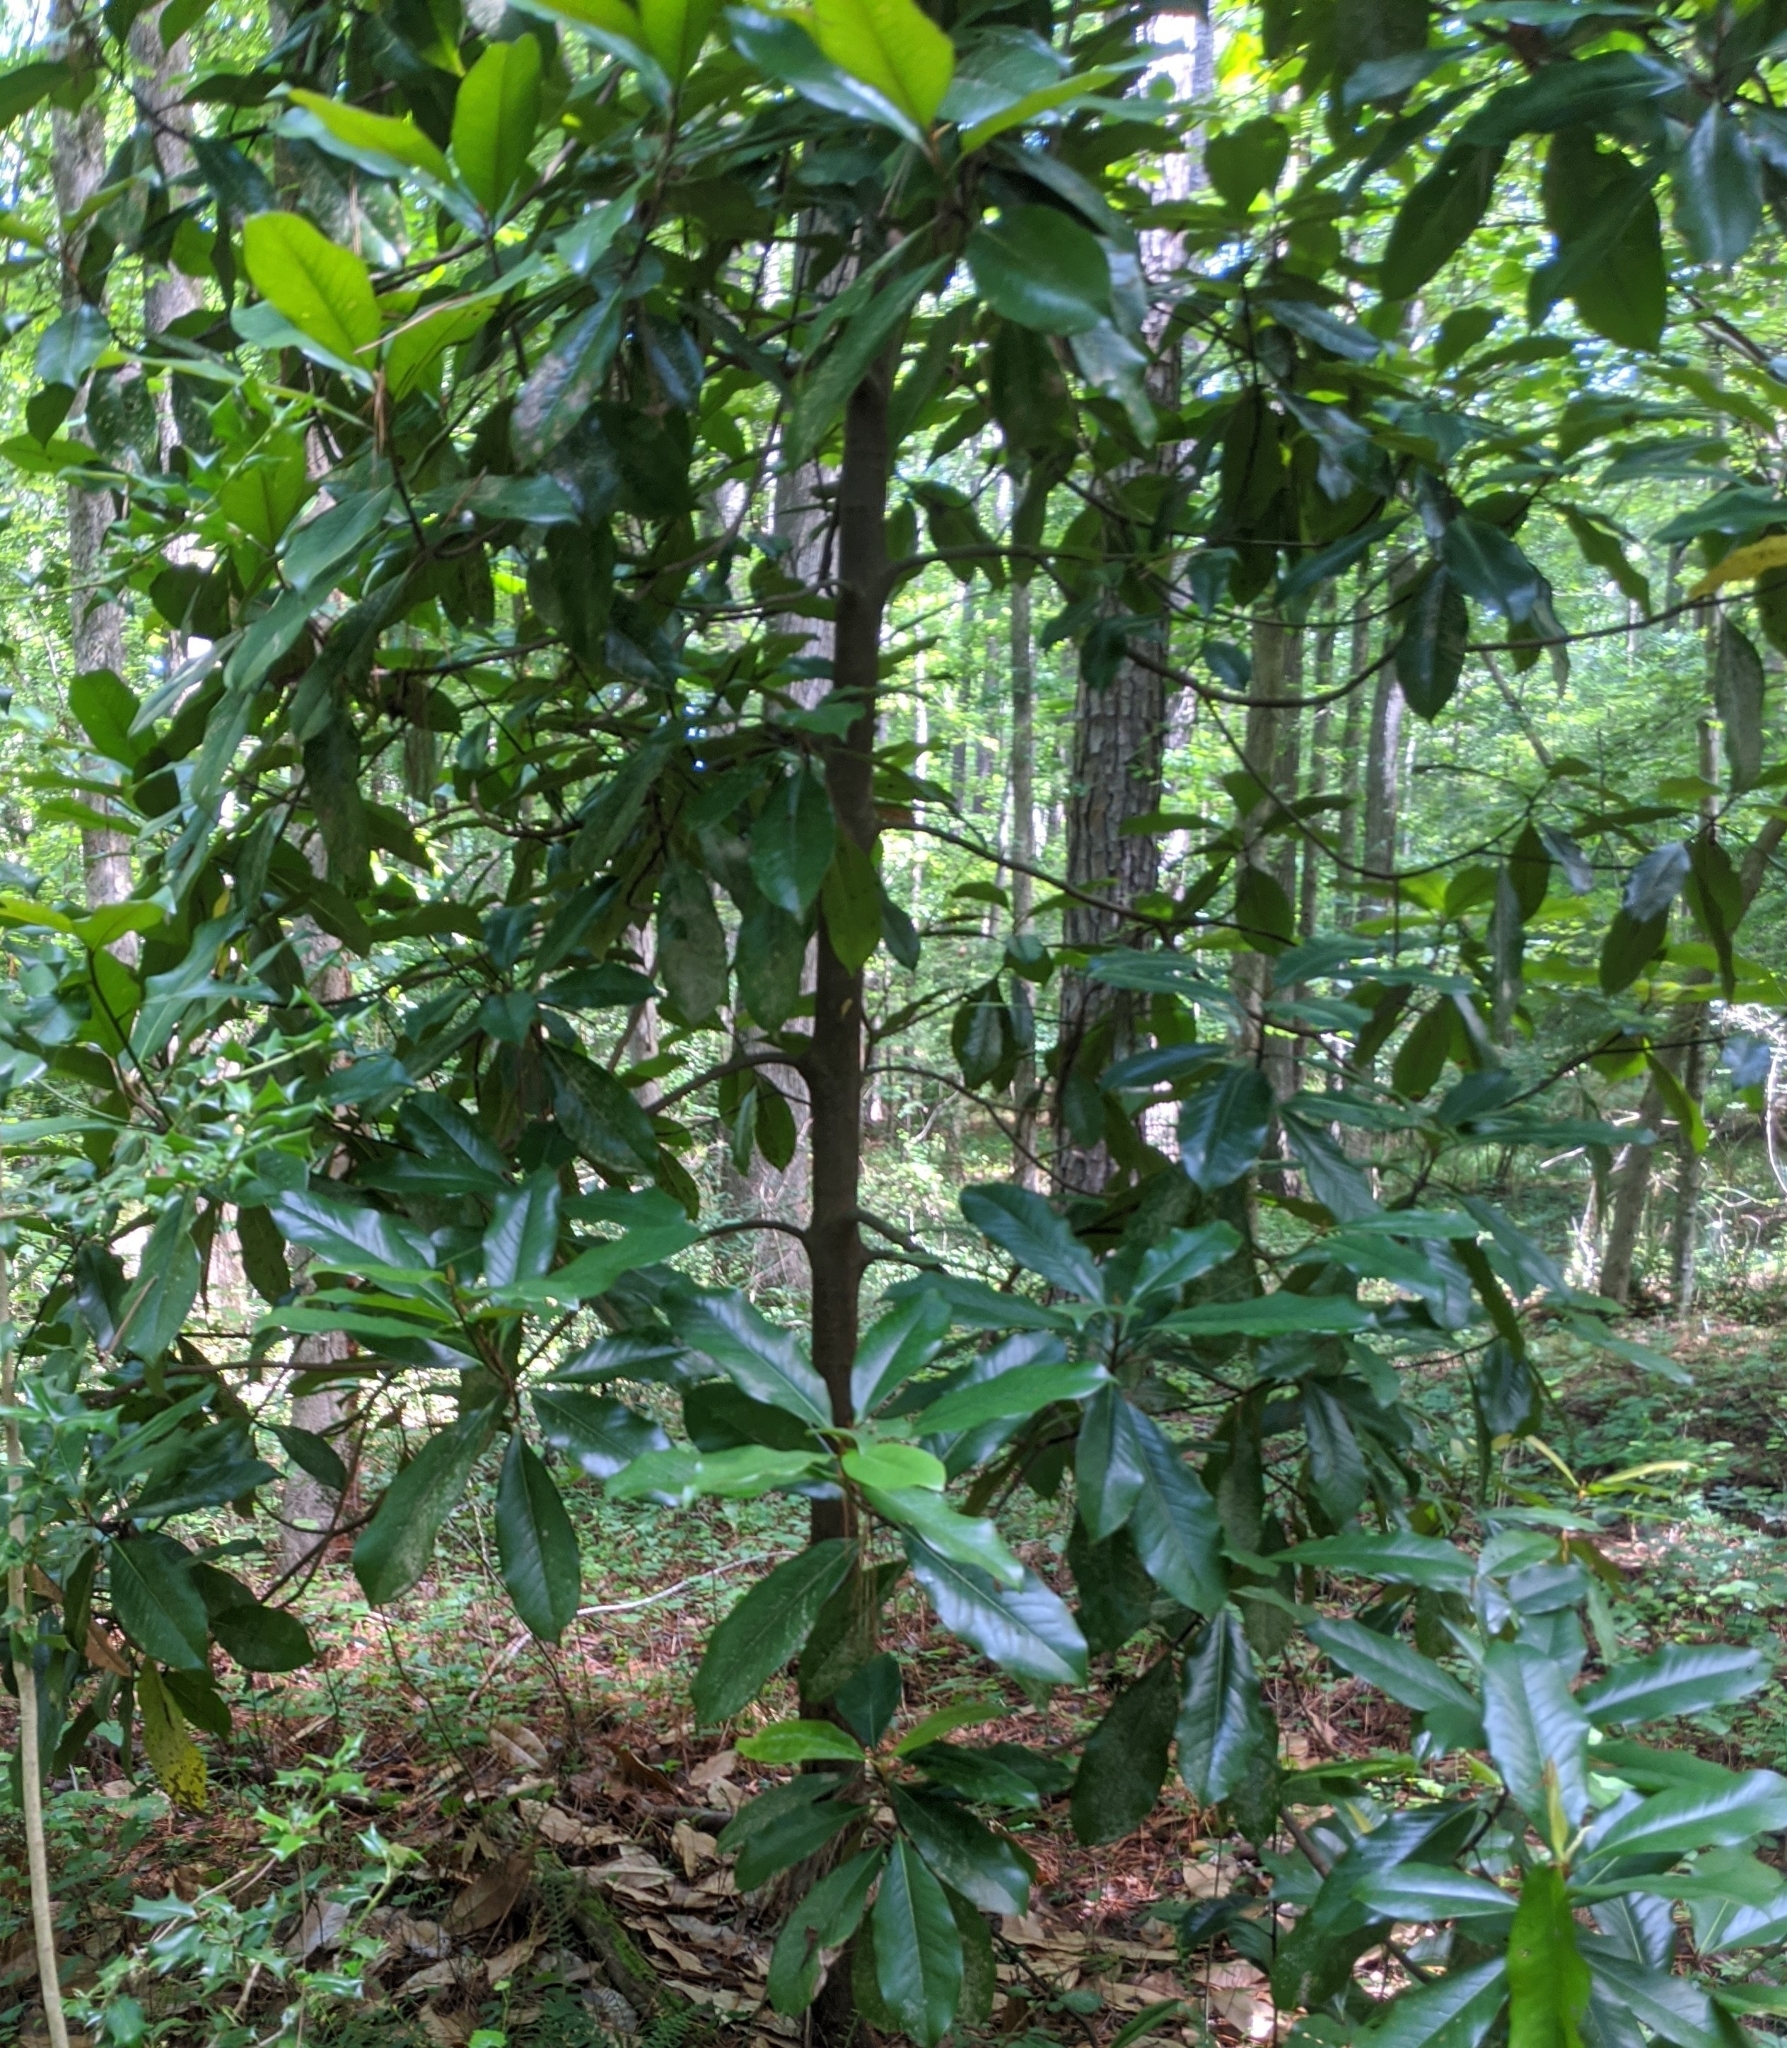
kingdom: Plantae
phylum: Tracheophyta
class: Magnoliopsida
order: Magnoliales
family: Magnoliaceae
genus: Magnolia
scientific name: Magnolia grandiflora
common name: Southern magnolia
